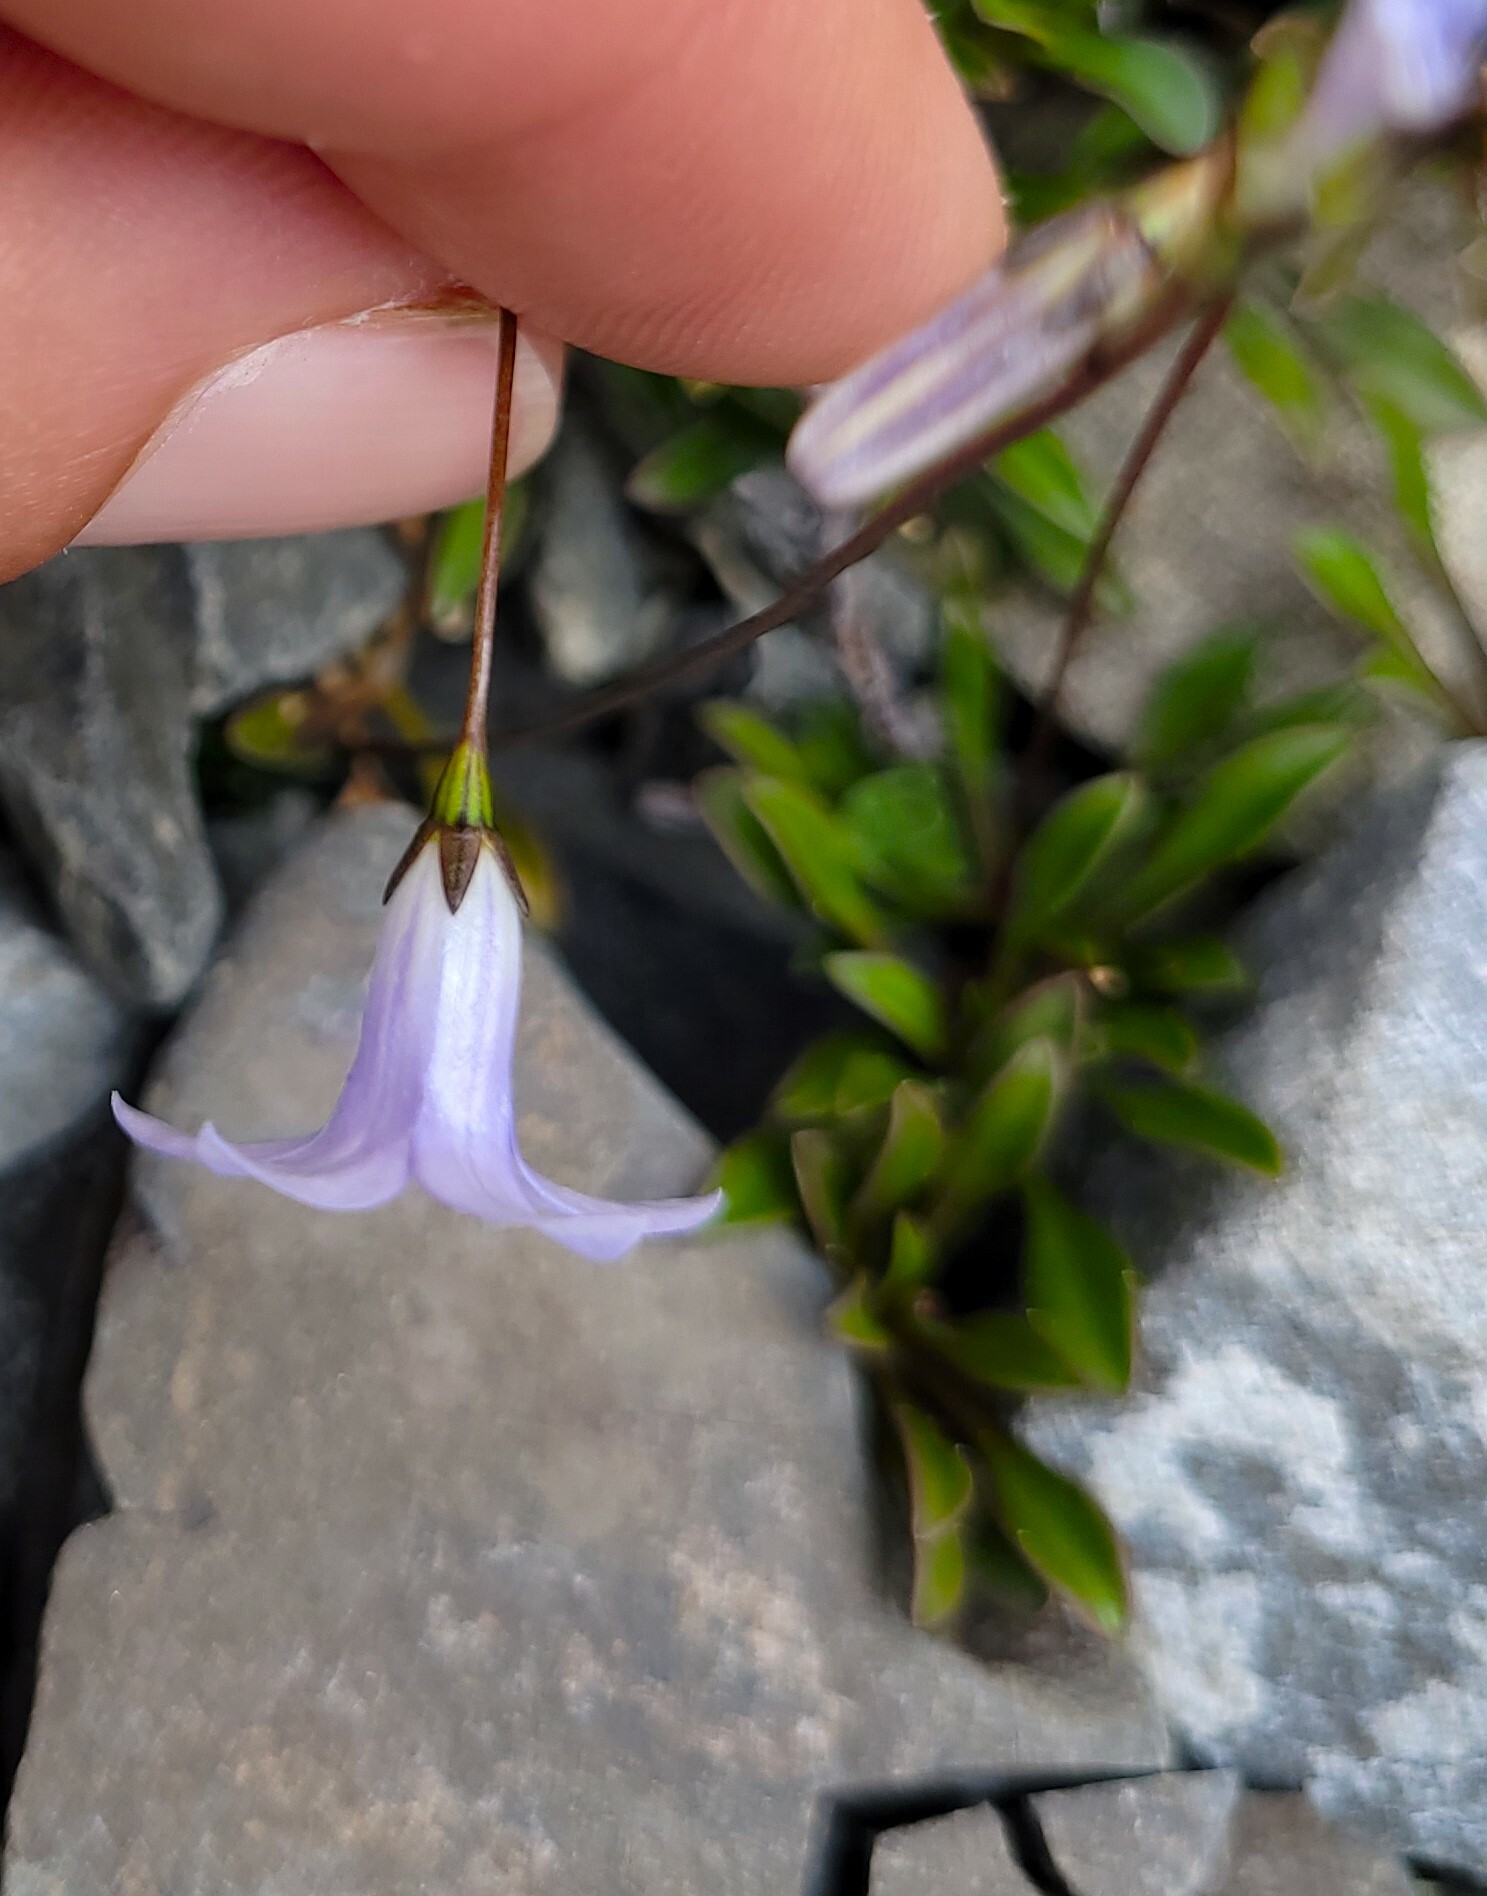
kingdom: Plantae
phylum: Tracheophyta
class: Magnoliopsida
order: Asterales
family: Campanulaceae
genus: Wahlenbergia
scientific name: Wahlenbergia albomarginata
